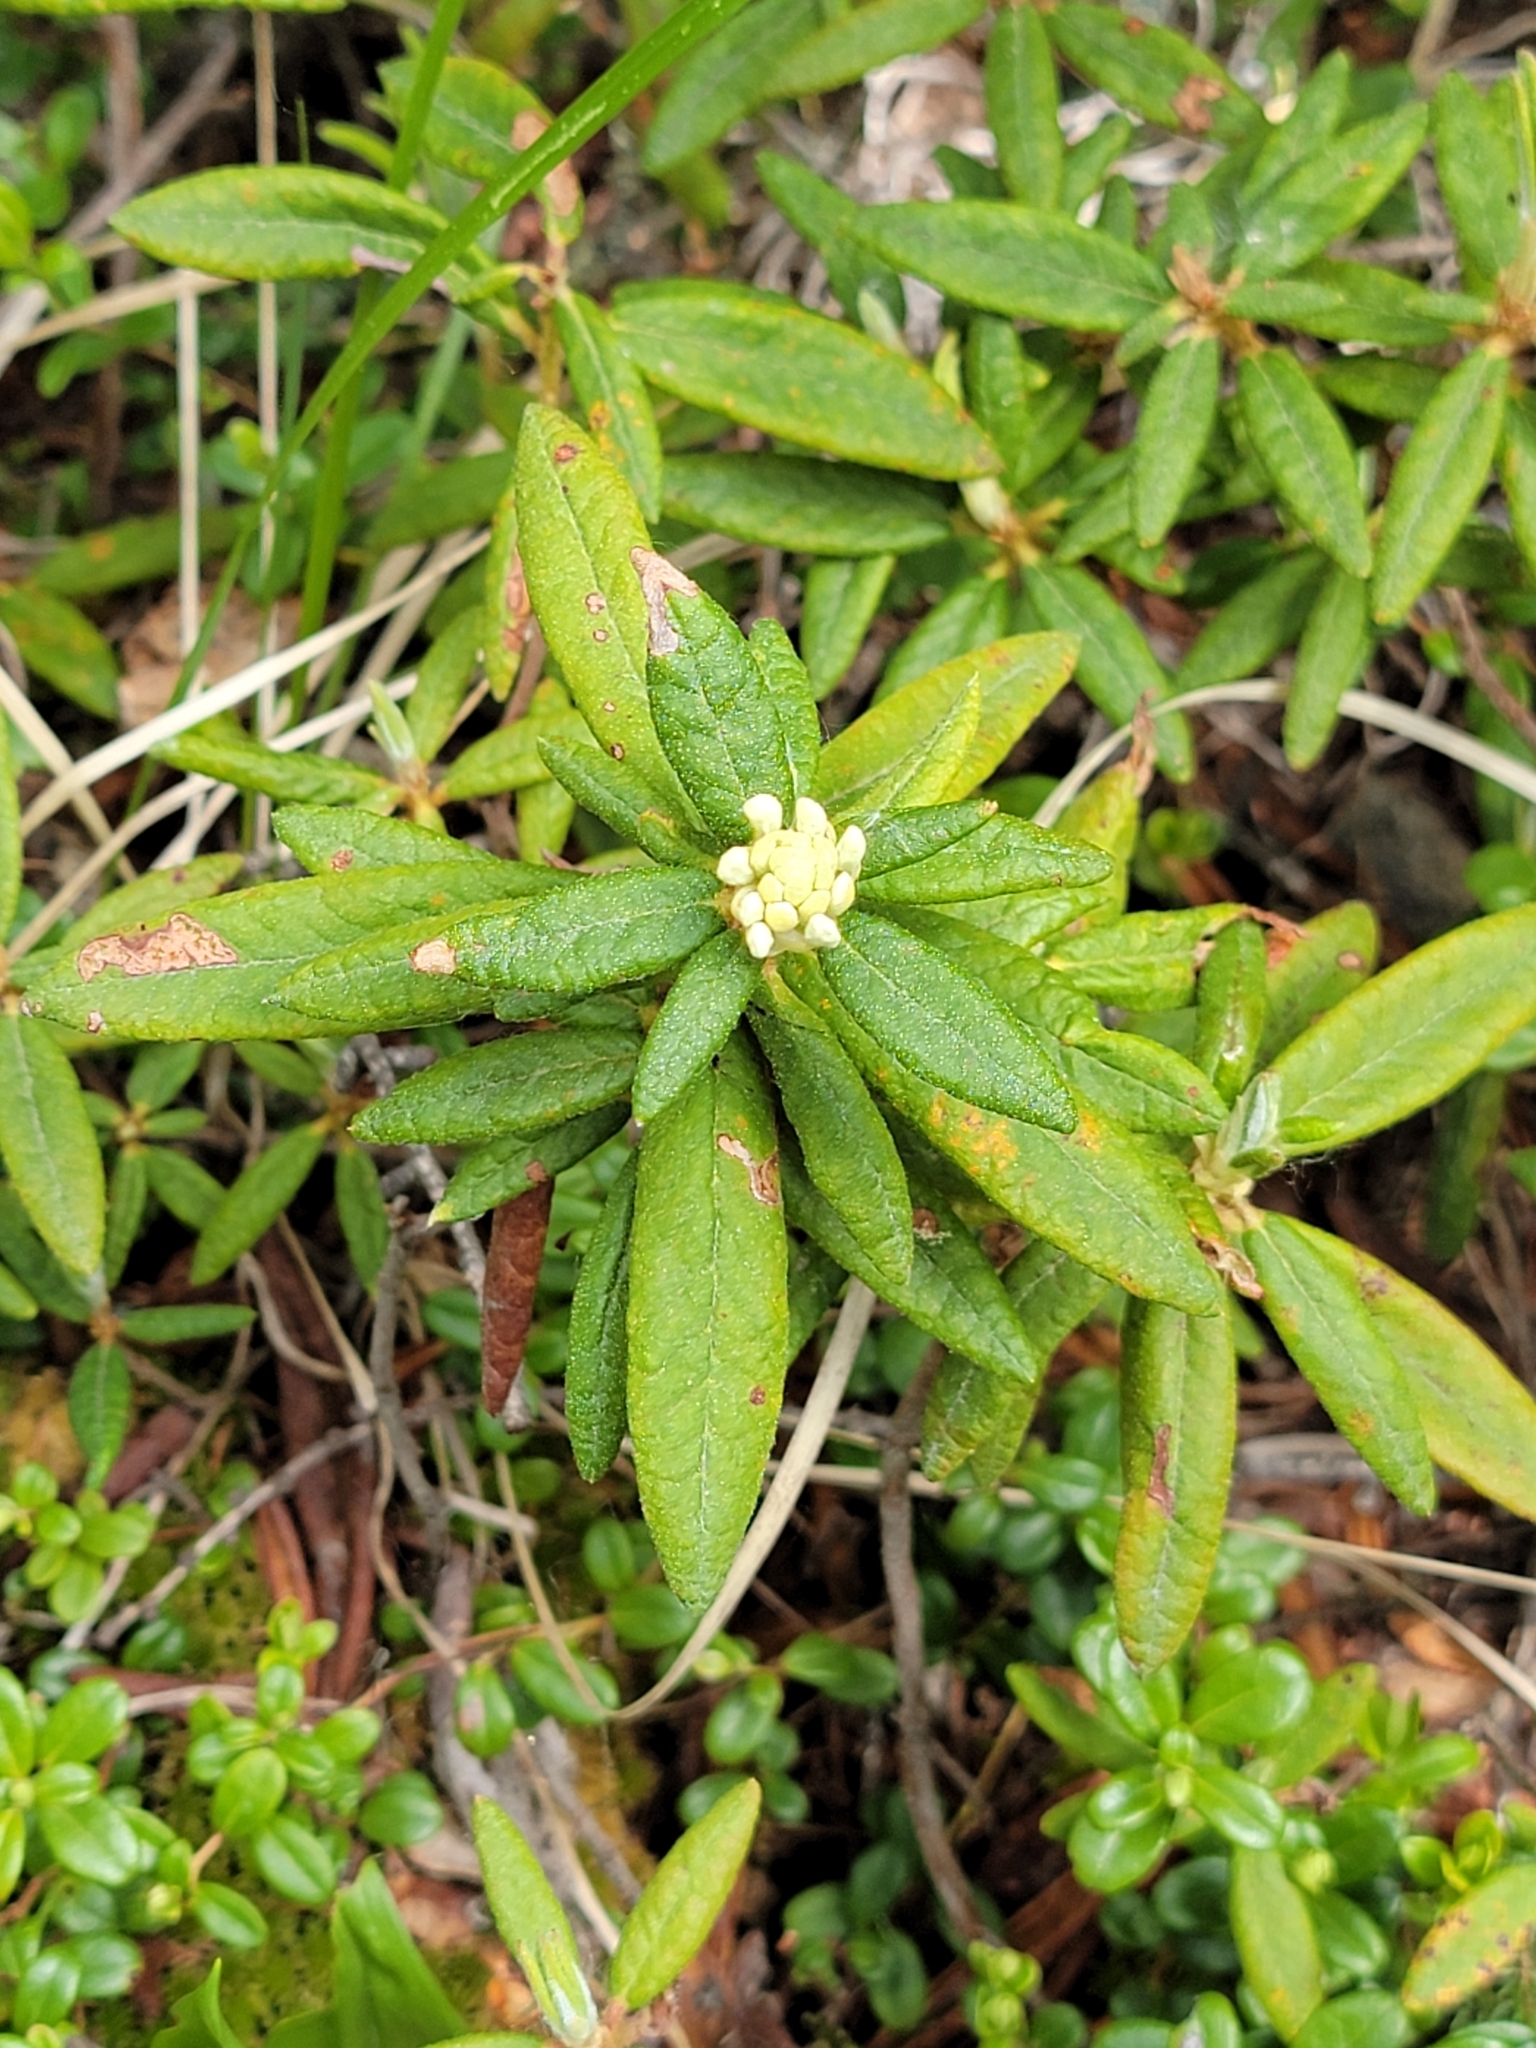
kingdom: Plantae
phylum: Tracheophyta
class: Magnoliopsida
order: Ericales
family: Ericaceae
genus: Rhododendron
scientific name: Rhododendron groenlandicum
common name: Bog labrador tea
